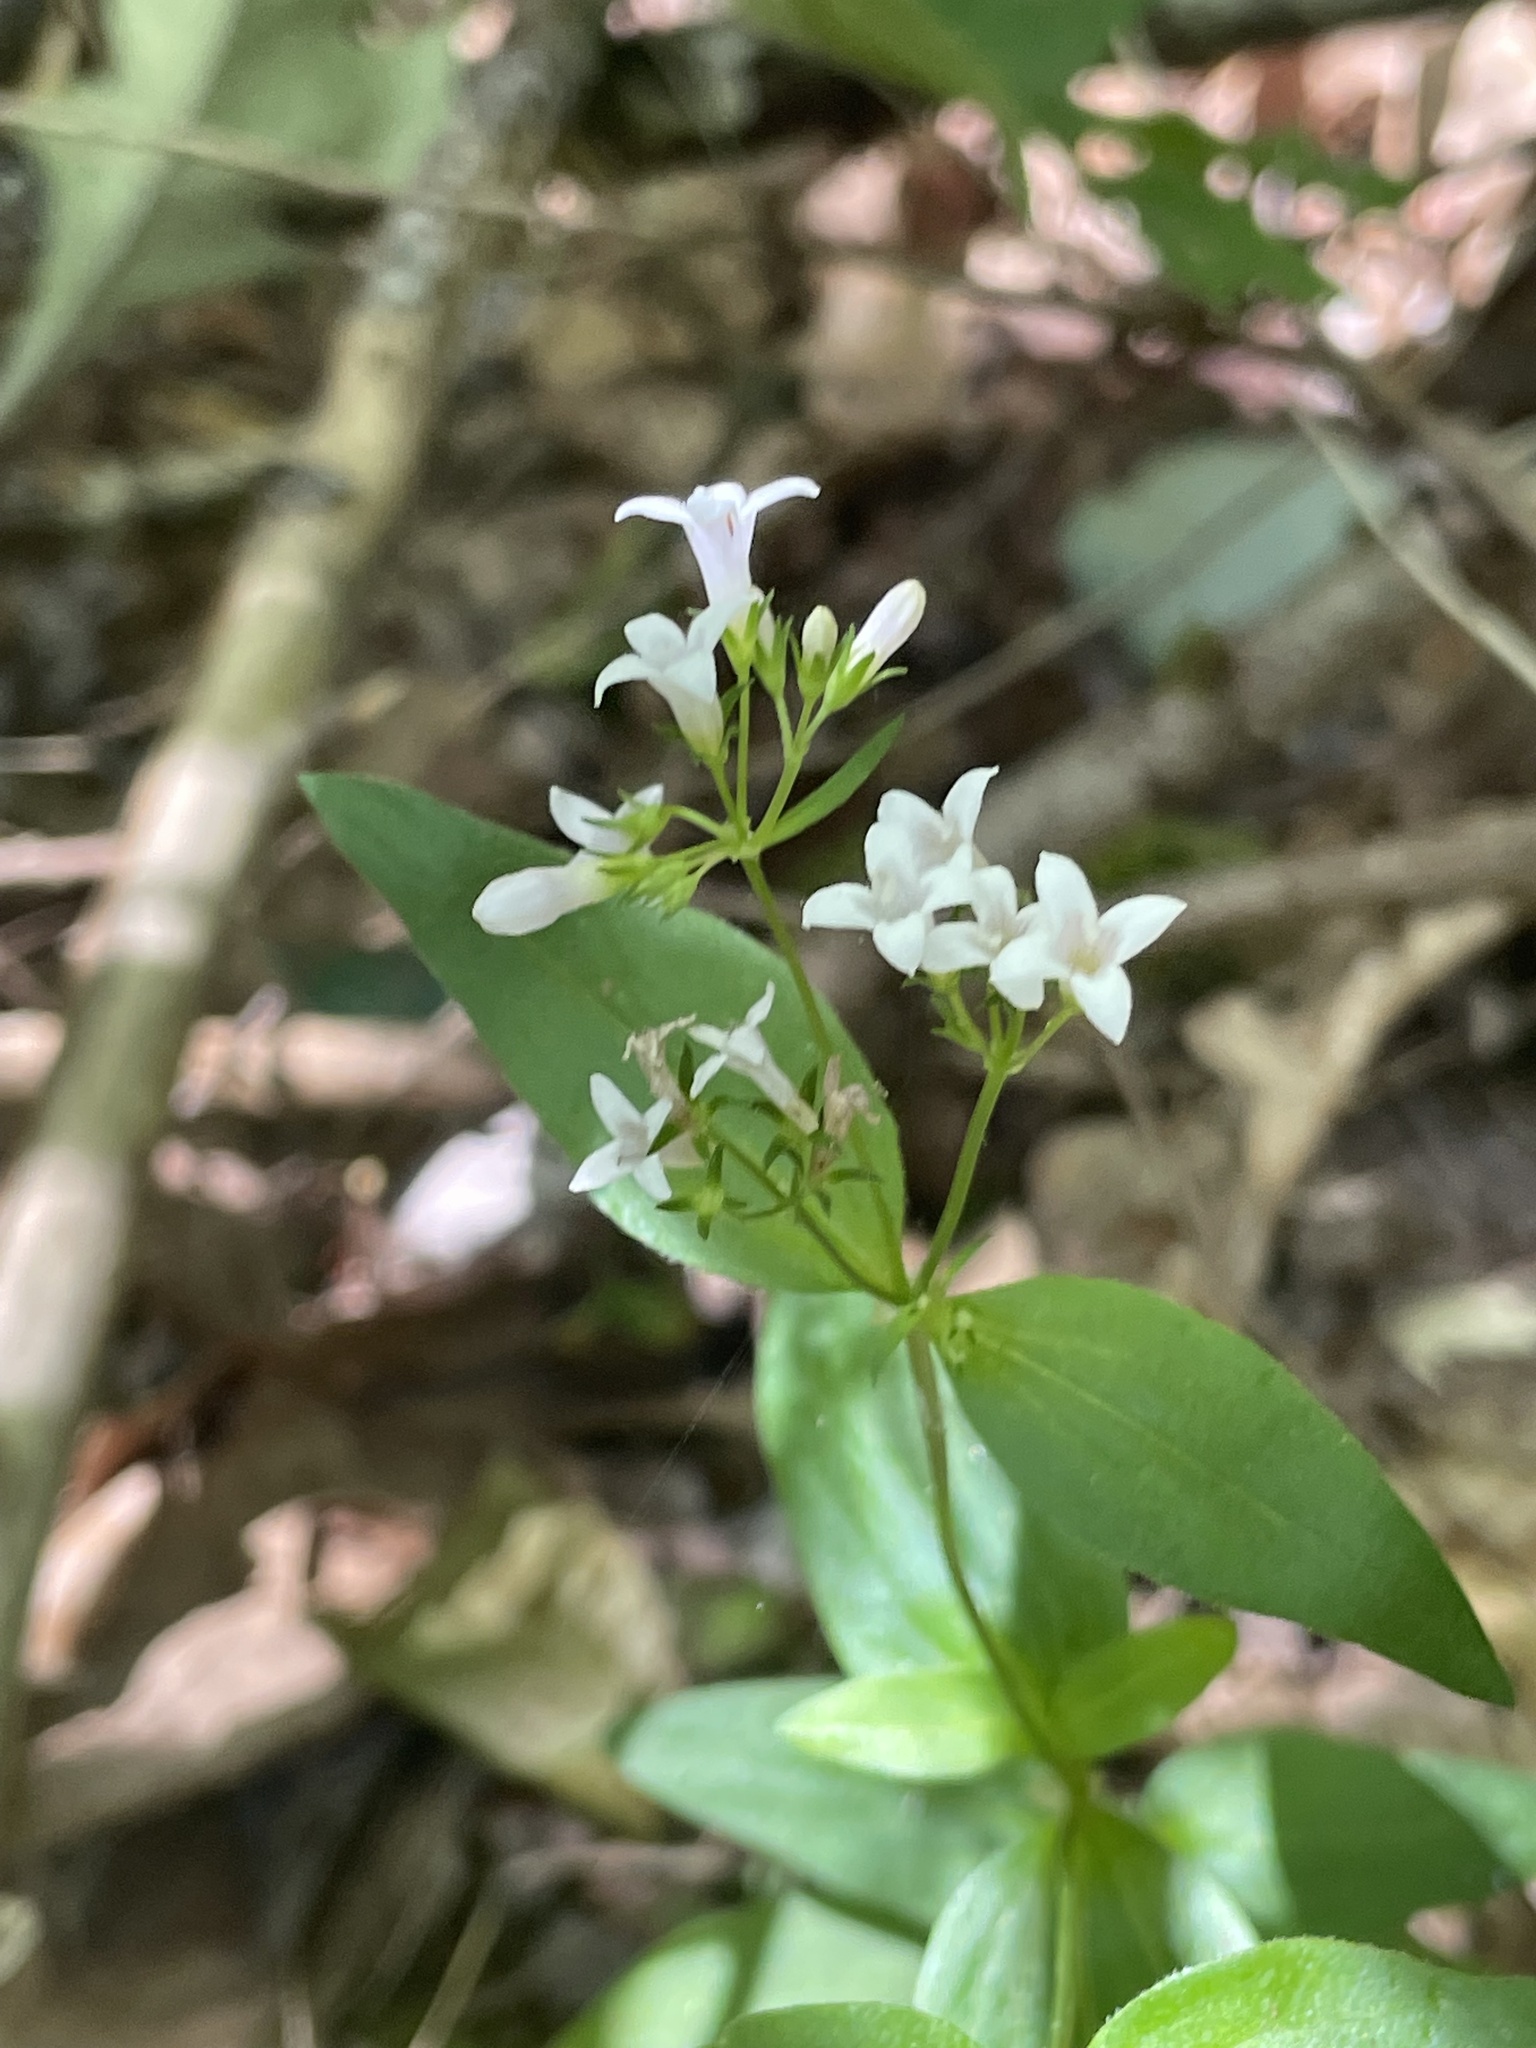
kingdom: Plantae
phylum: Tracheophyta
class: Magnoliopsida
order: Gentianales
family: Rubiaceae
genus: Houstonia
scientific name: Houstonia purpurea
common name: Summer bluet
